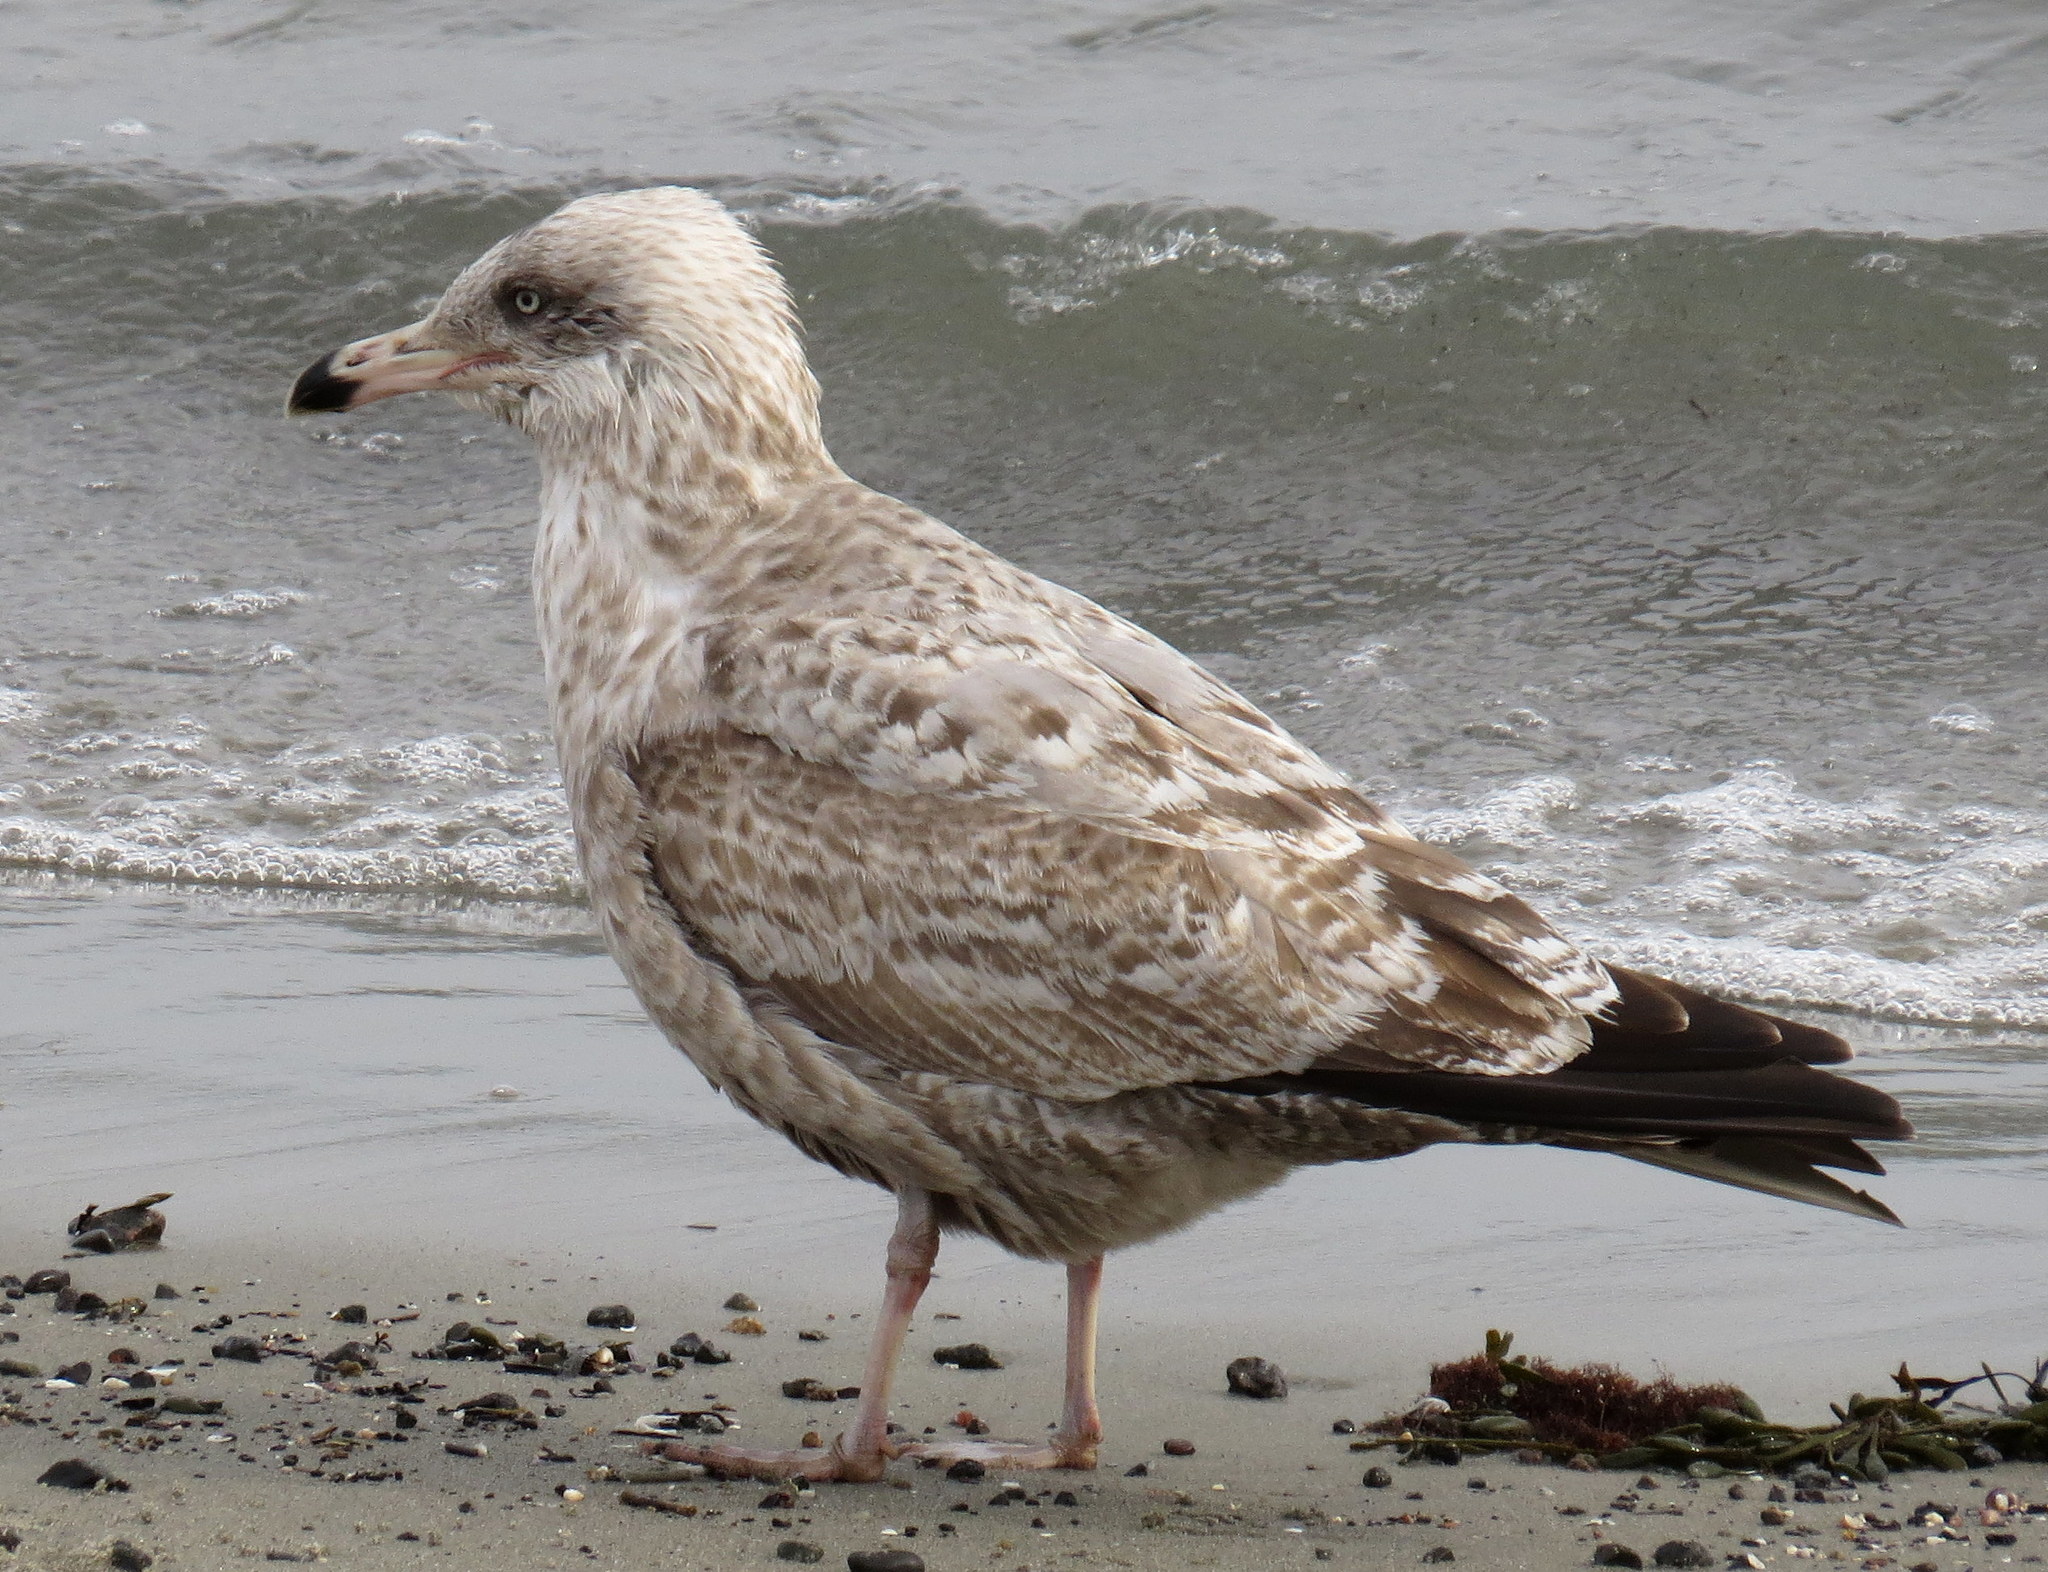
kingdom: Animalia
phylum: Chordata
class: Aves
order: Charadriiformes
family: Laridae
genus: Larus
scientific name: Larus argentatus
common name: Herring gull
